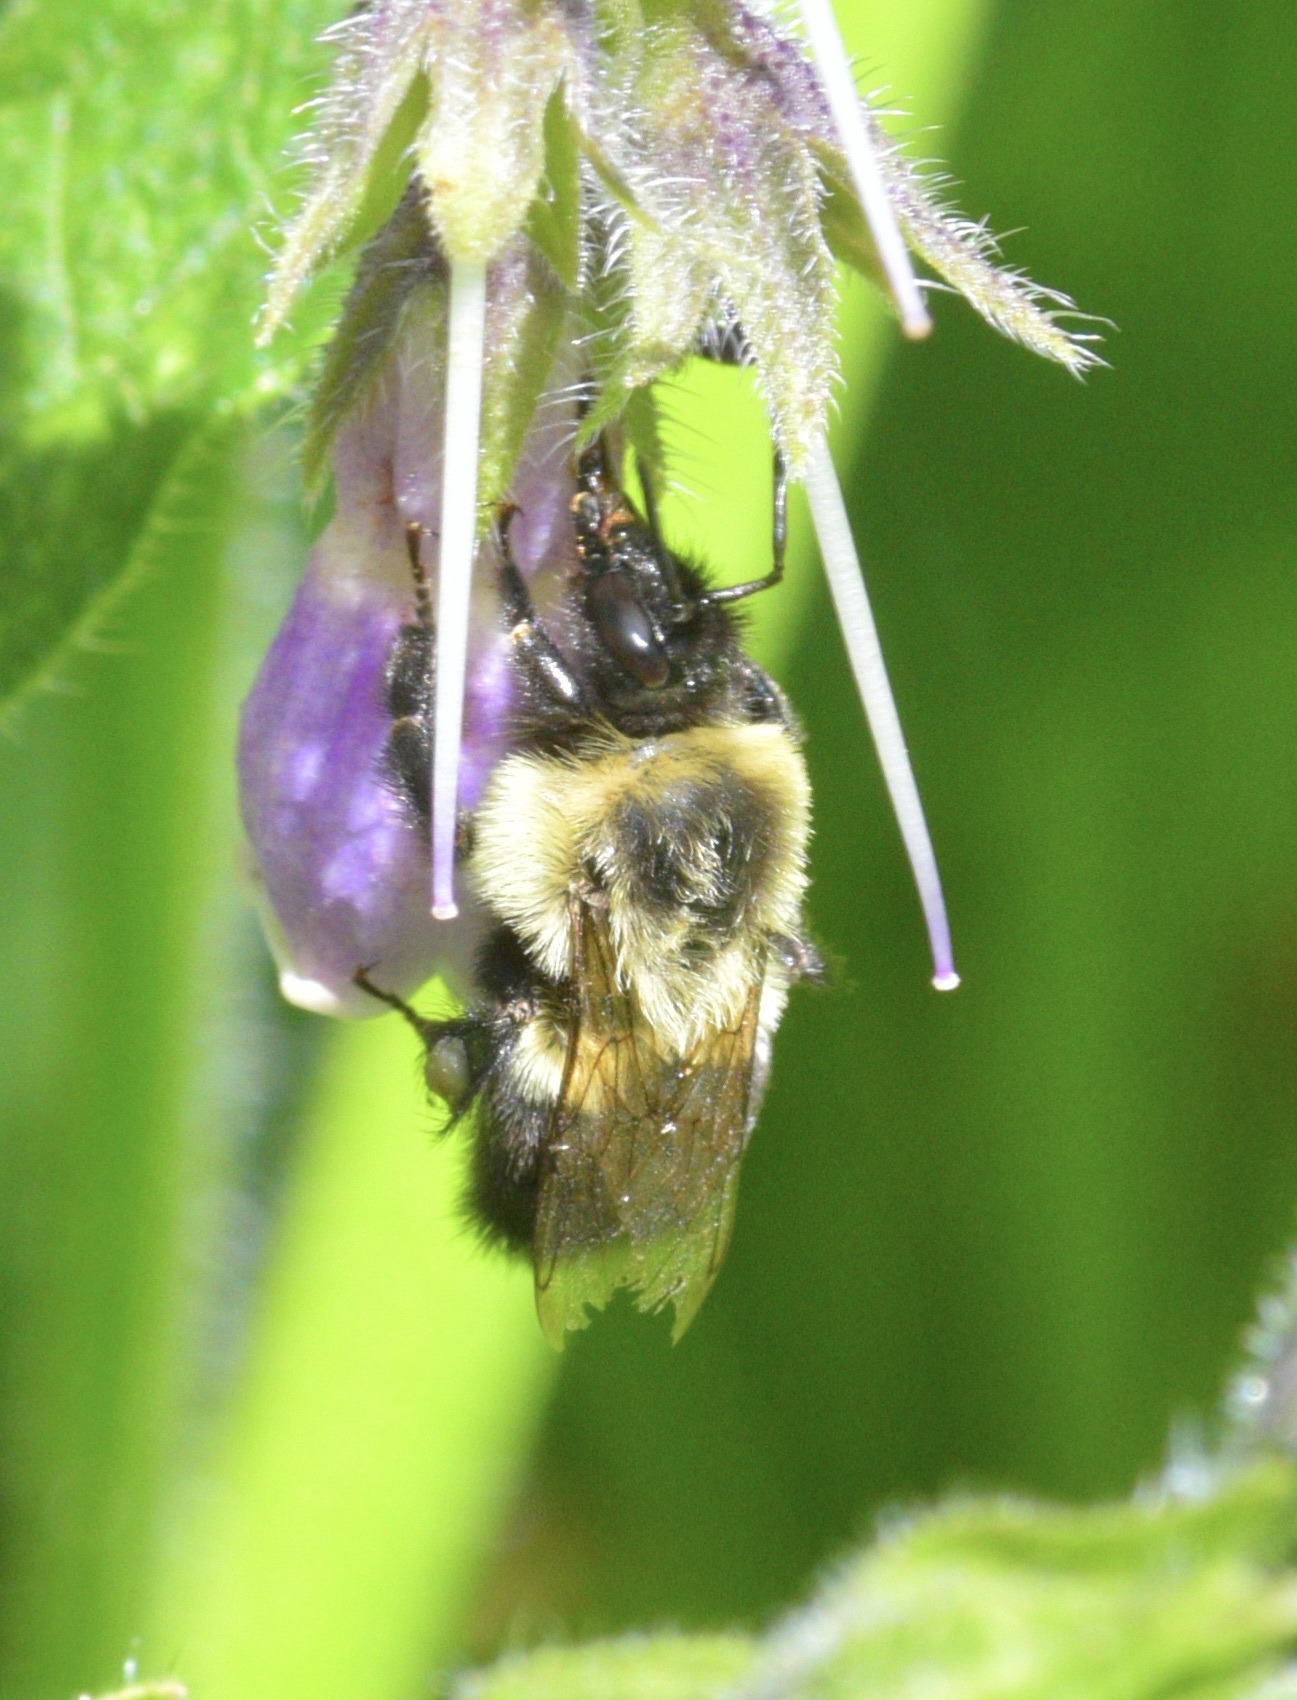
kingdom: Animalia
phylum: Arthropoda
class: Insecta
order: Hymenoptera
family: Apidae
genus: Bombus
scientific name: Bombus impatiens
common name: Common eastern bumble bee
